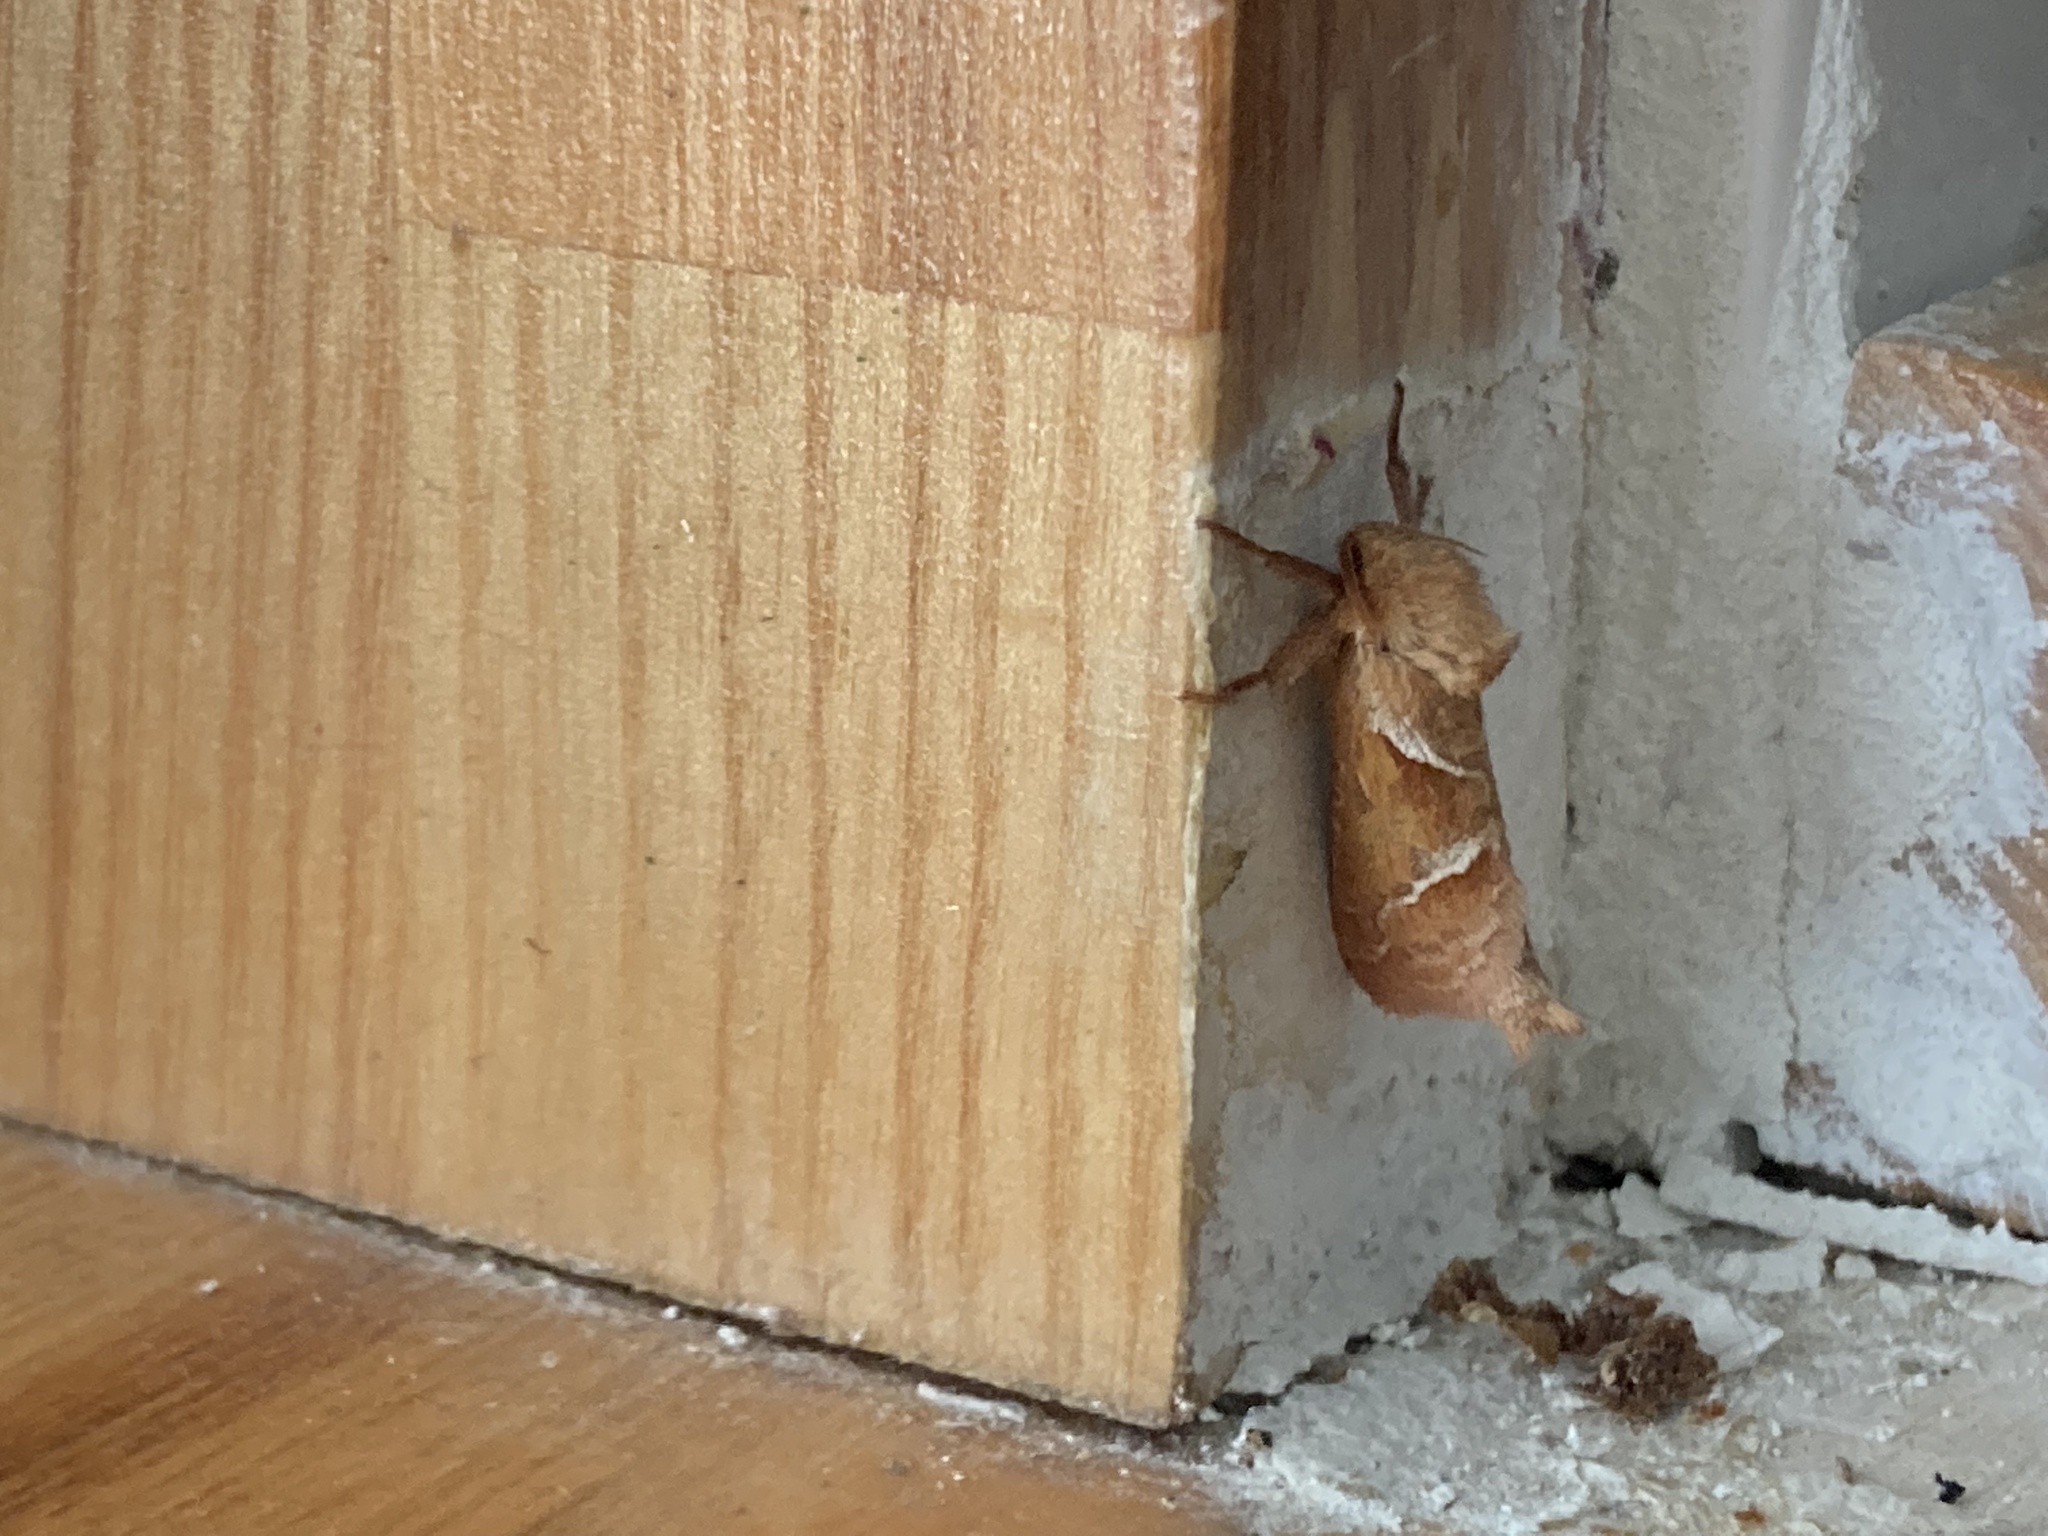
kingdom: Animalia
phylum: Arthropoda
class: Insecta
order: Lepidoptera
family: Hepialidae
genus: Triodia
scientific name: Triodia sylvina
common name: Orange swift
